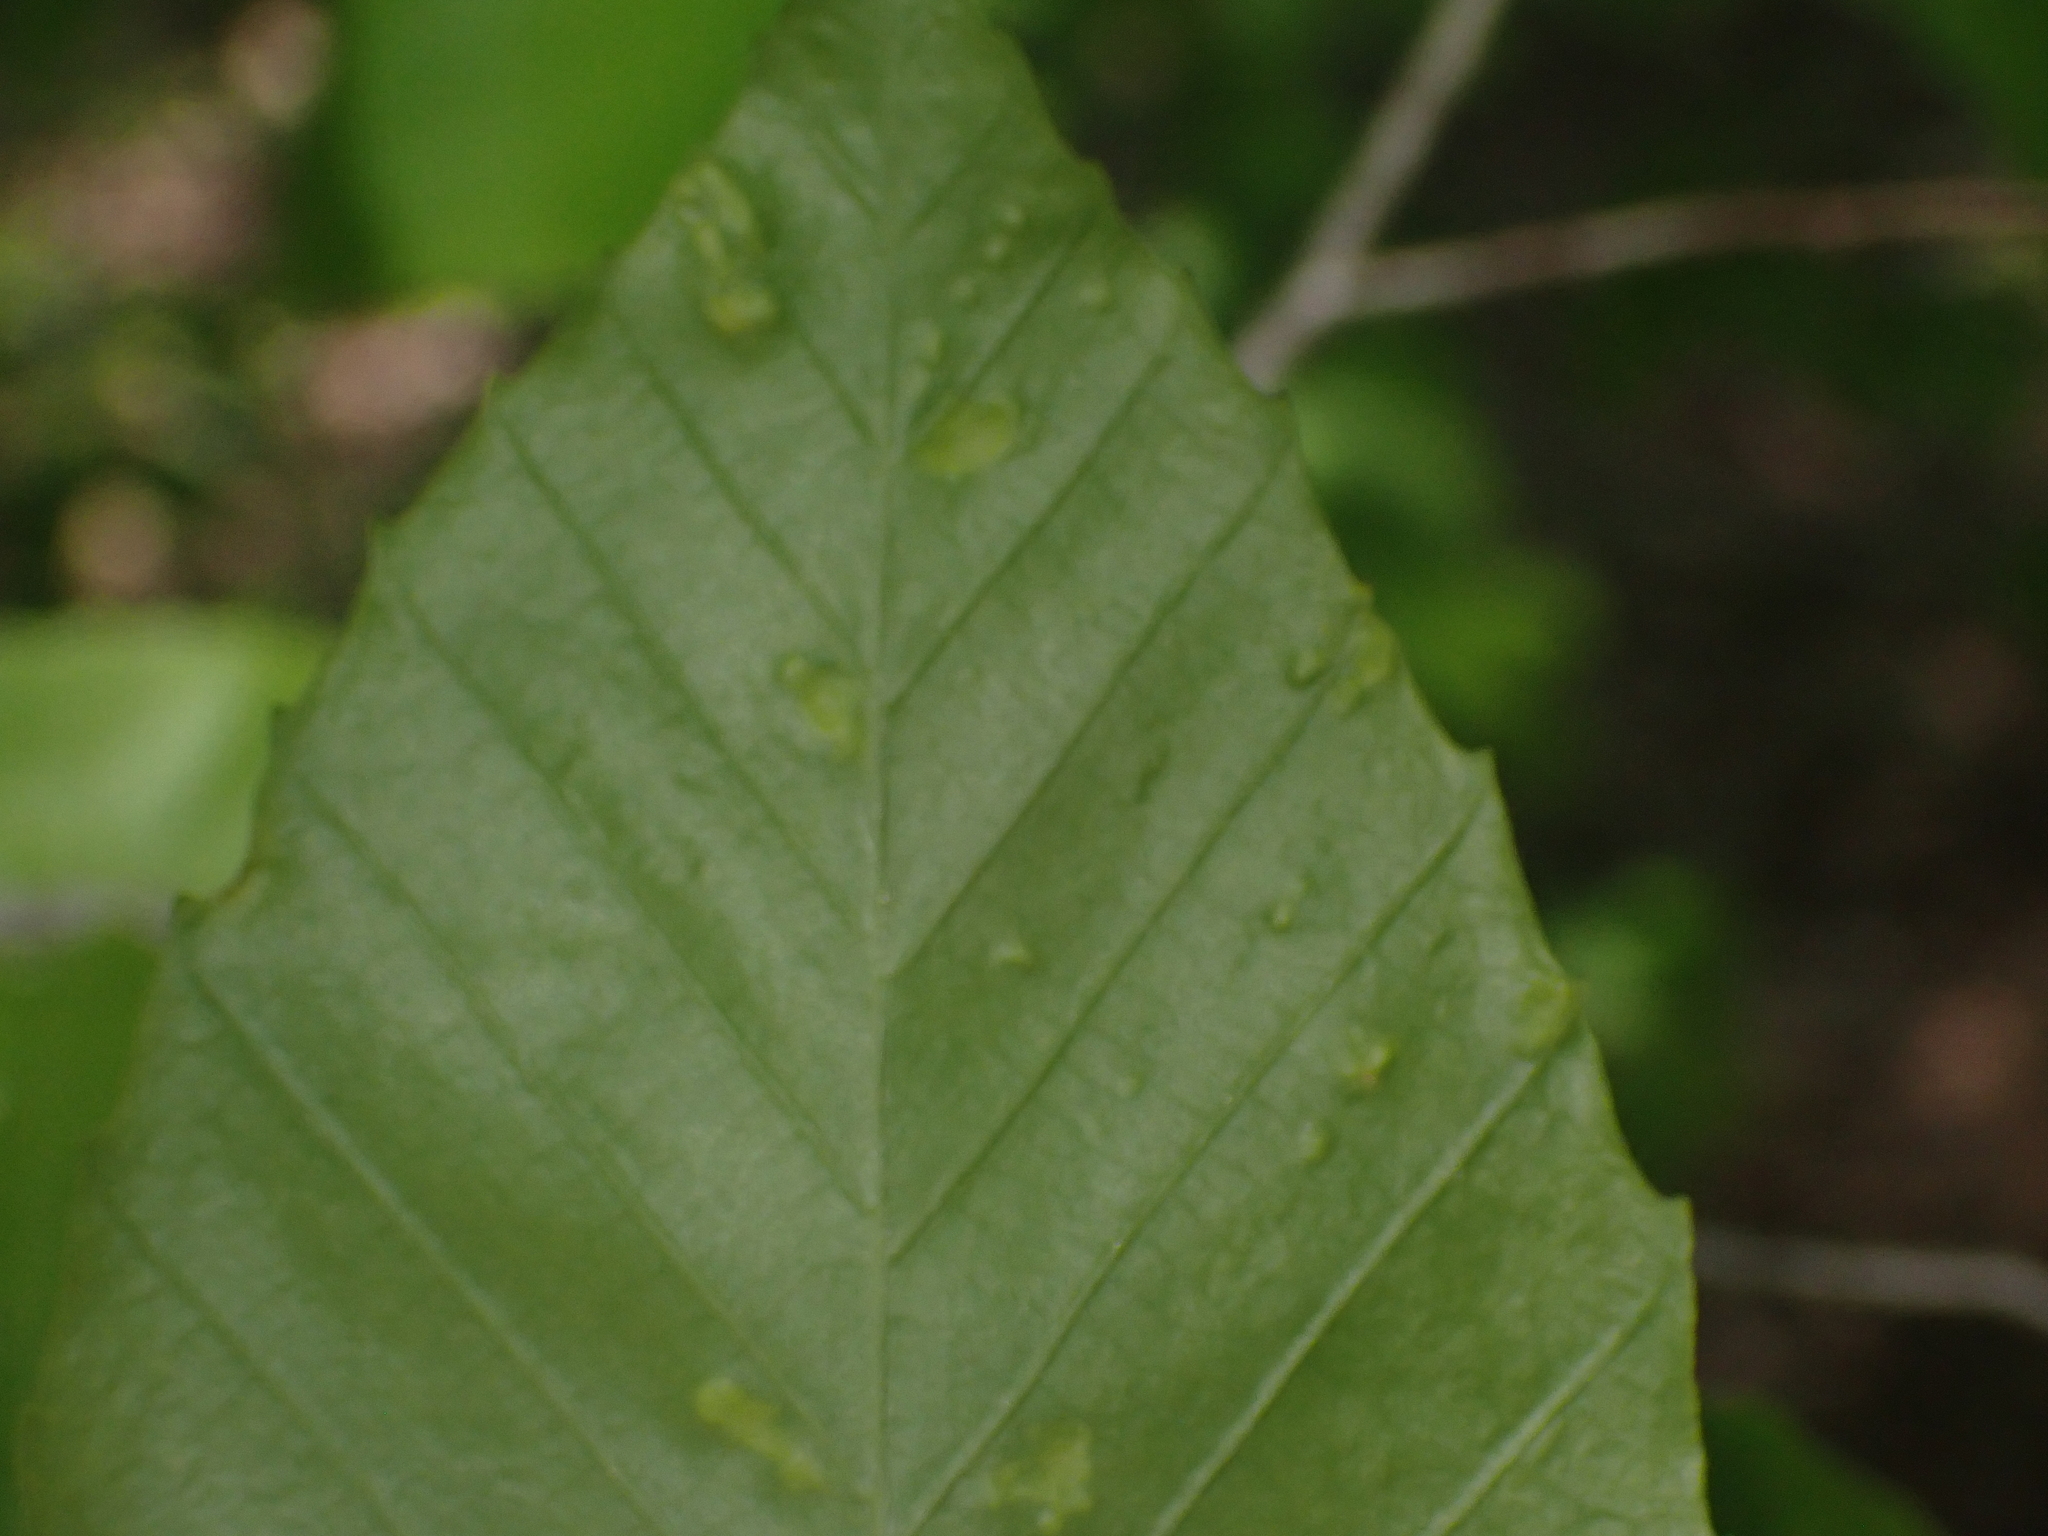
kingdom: Animalia
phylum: Arthropoda
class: Arachnida
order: Trombidiformes
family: Eriophyidae
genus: Acalitus
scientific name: Acalitus
